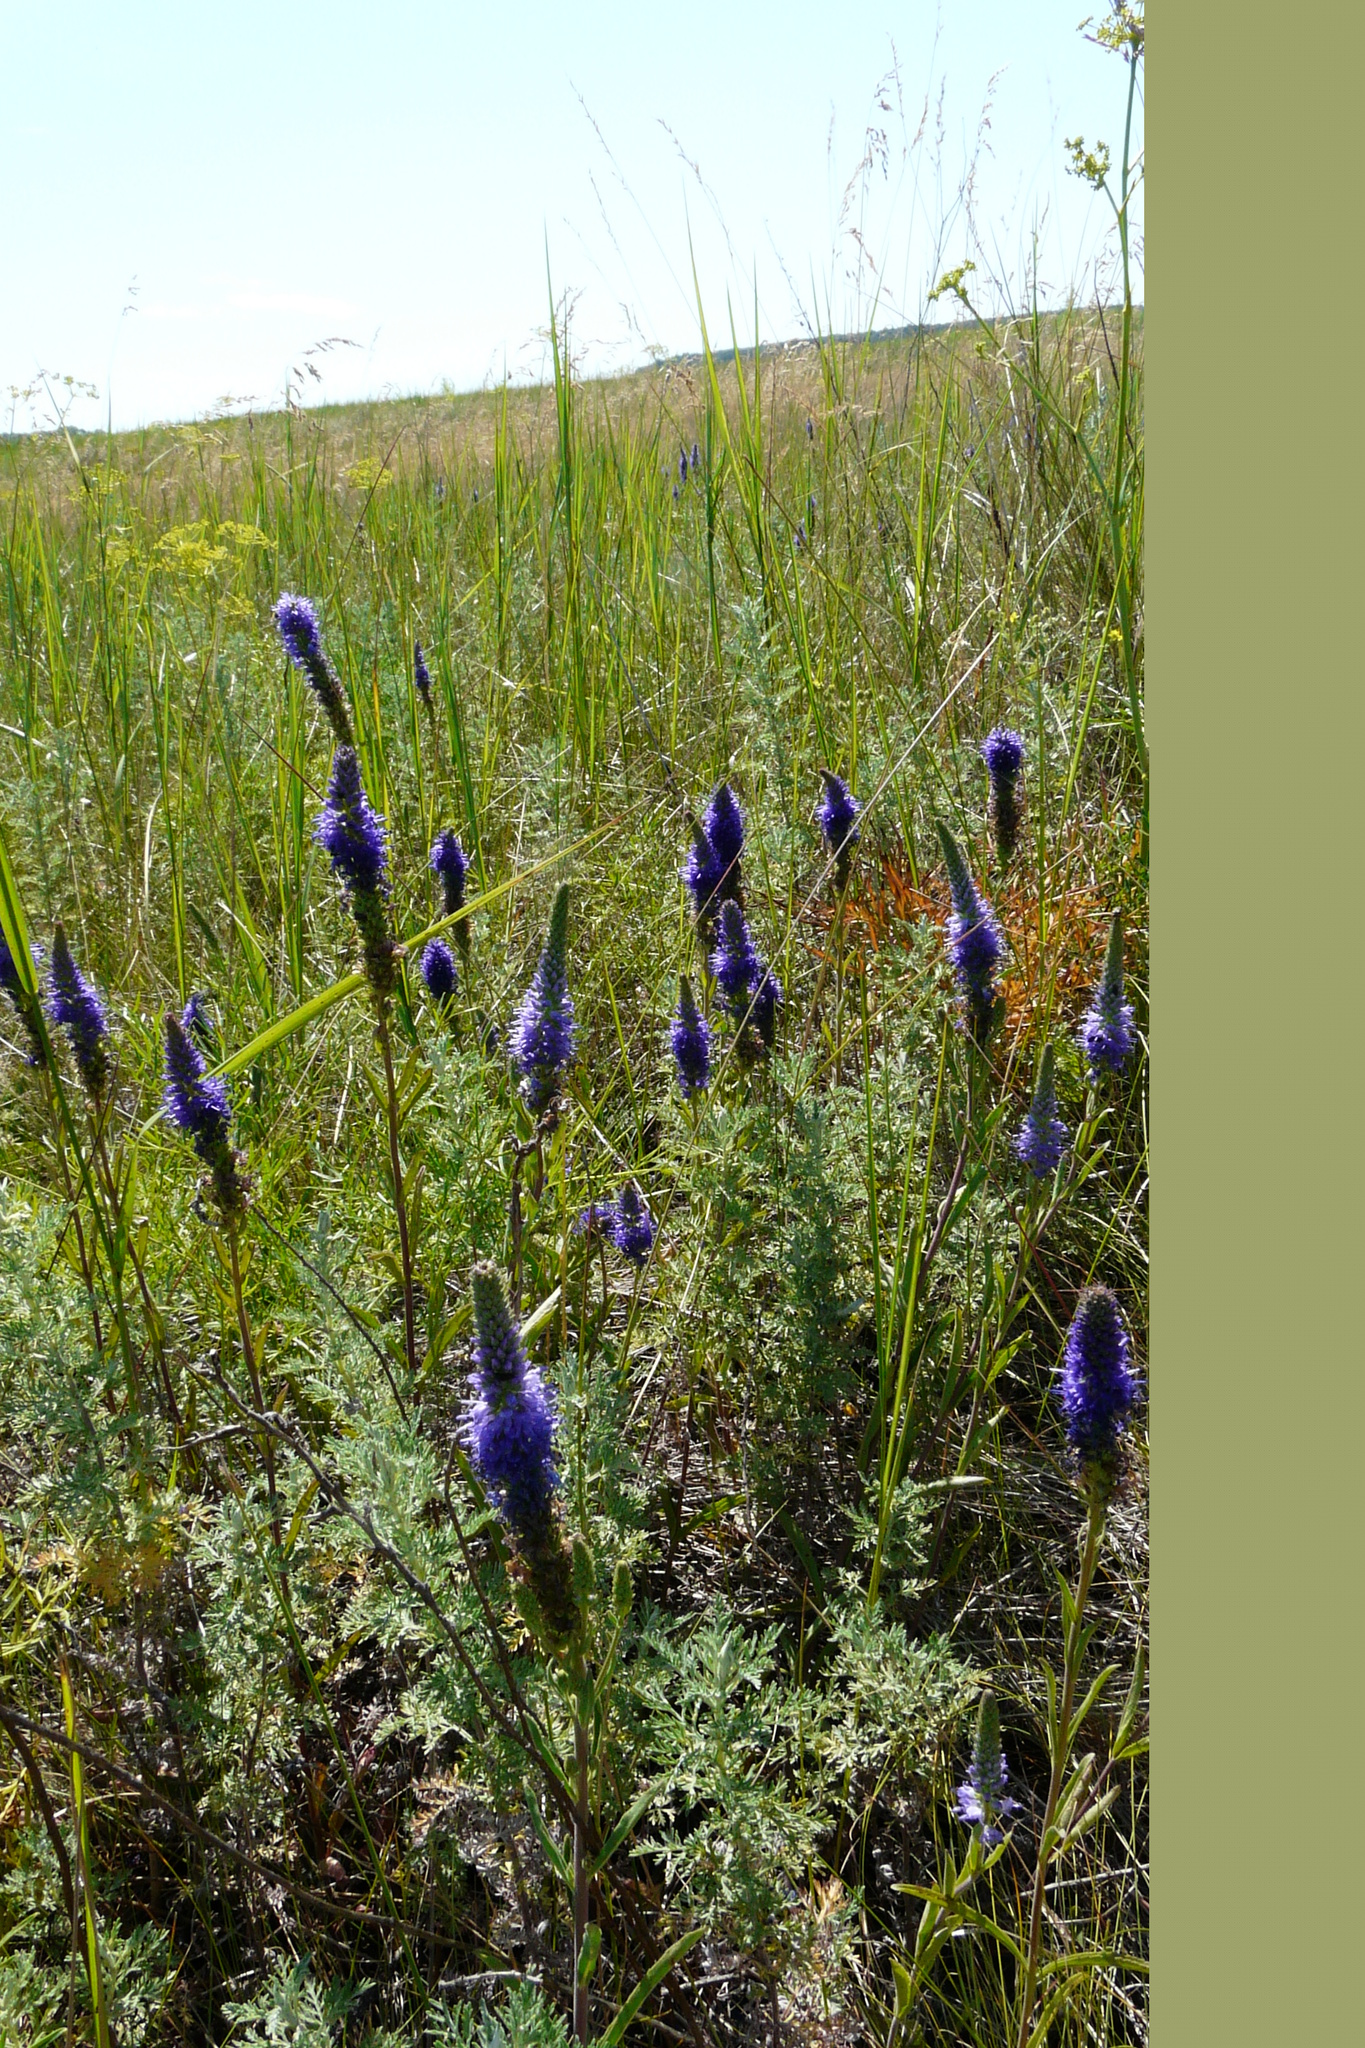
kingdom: Plantae
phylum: Tracheophyta
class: Magnoliopsida
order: Lamiales
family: Plantaginaceae
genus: Veronica
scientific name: Veronica spicata
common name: Spiked speedwell
